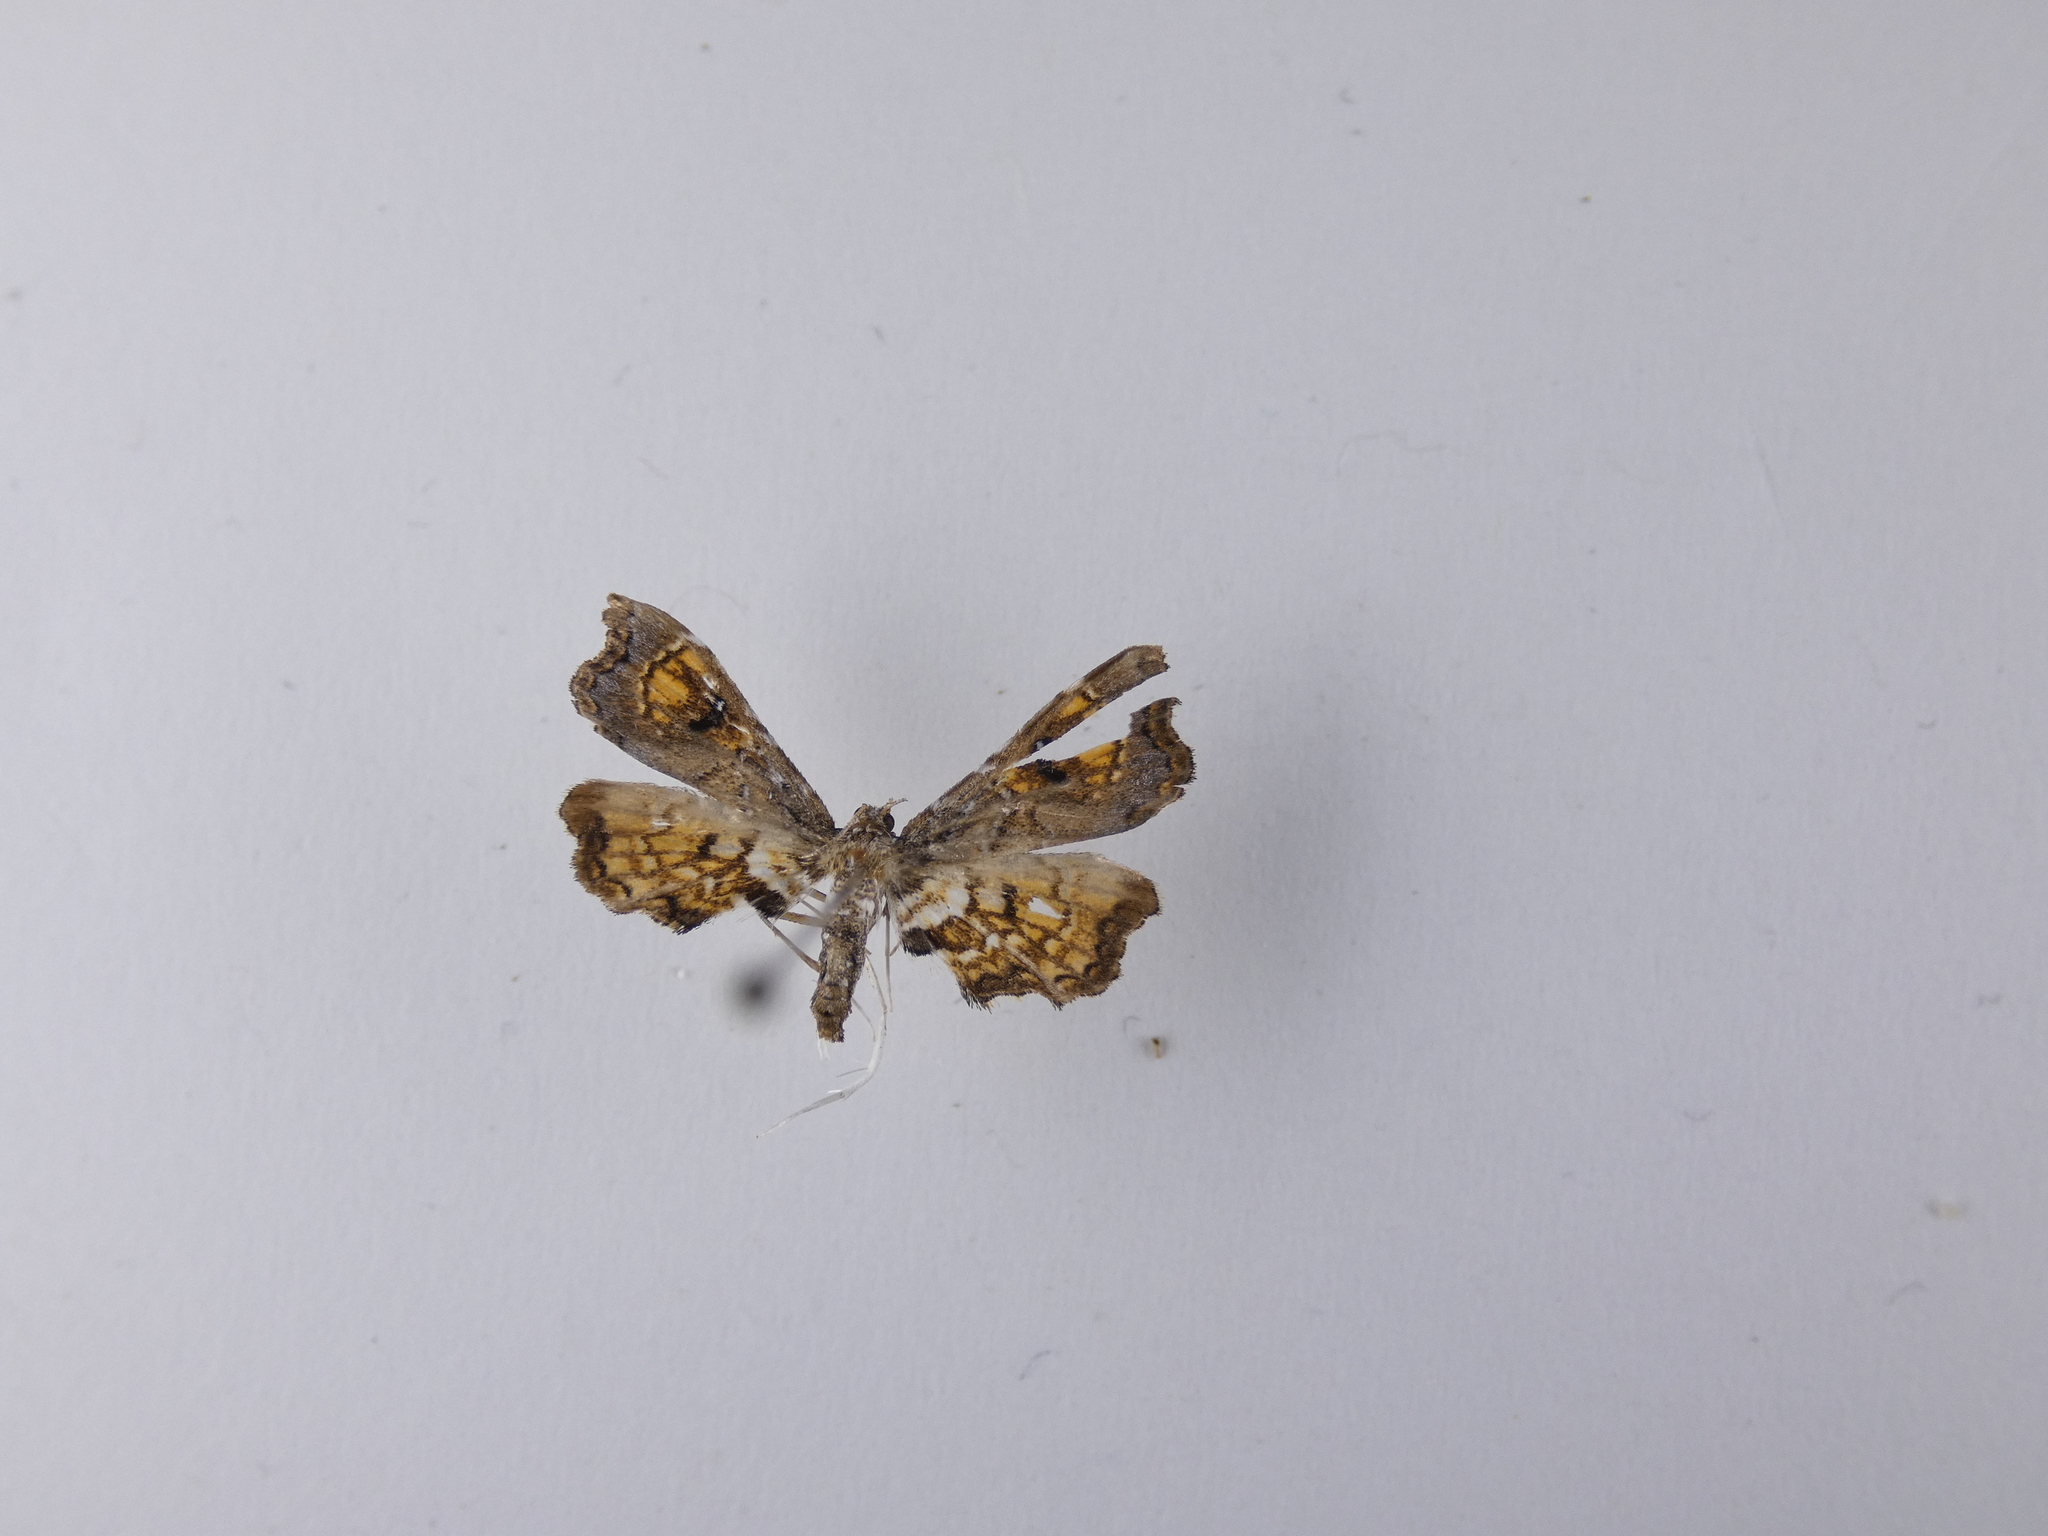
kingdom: Animalia
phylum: Arthropoda
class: Insecta
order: Lepidoptera
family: Pyralidae
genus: Musotima
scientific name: Musotima aduncalis
